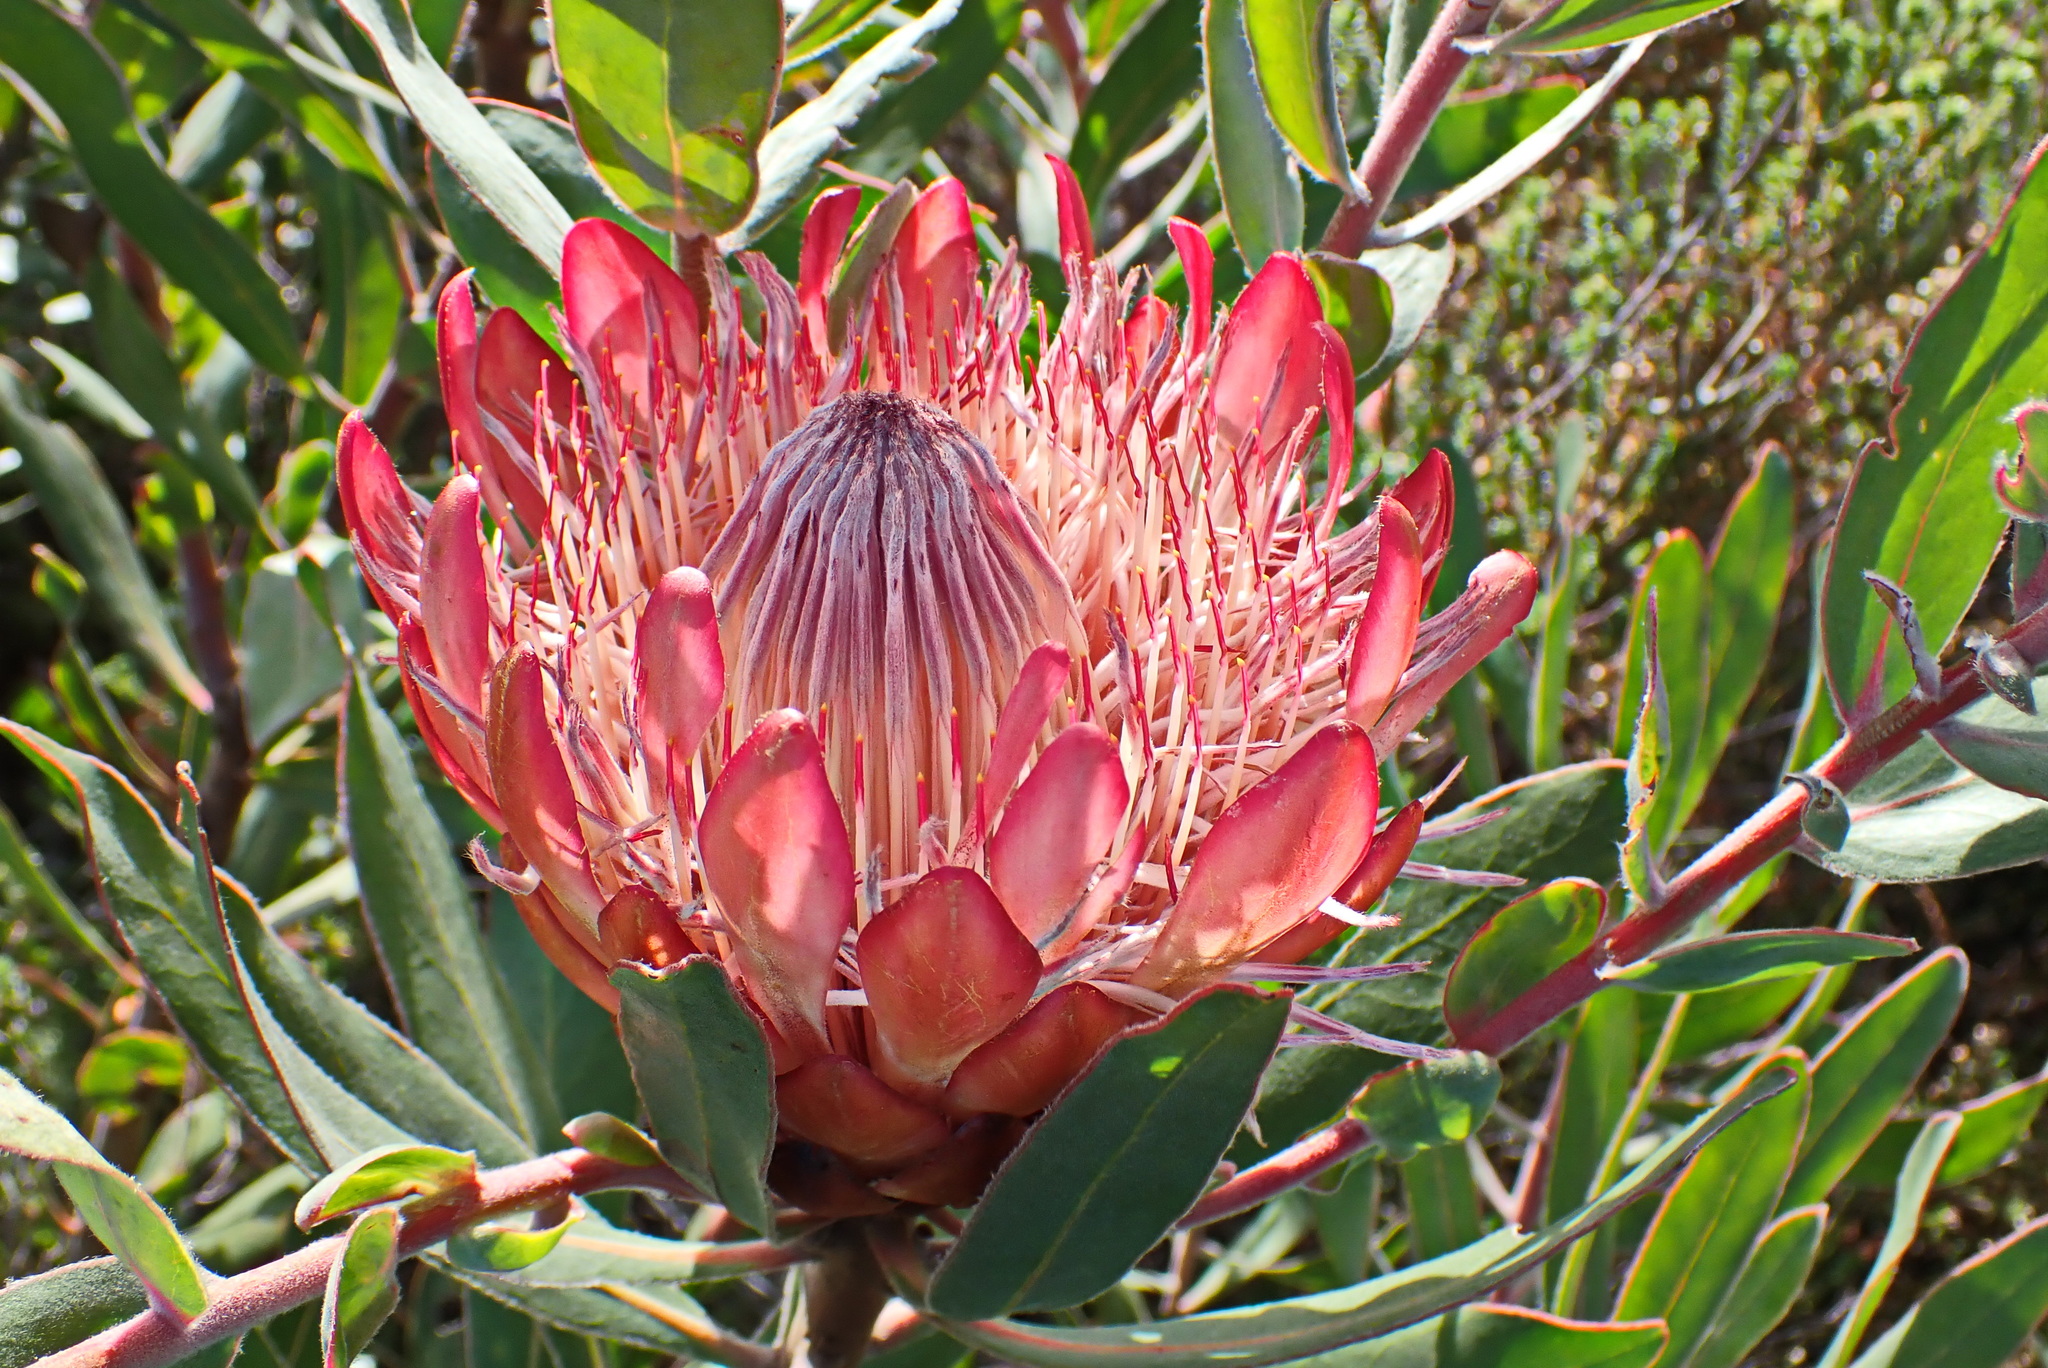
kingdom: Plantae
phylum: Tracheophyta
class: Magnoliopsida
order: Proteales
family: Proteaceae
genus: Protea
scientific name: Protea susannae
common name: Foetid-leaf sugarbush
